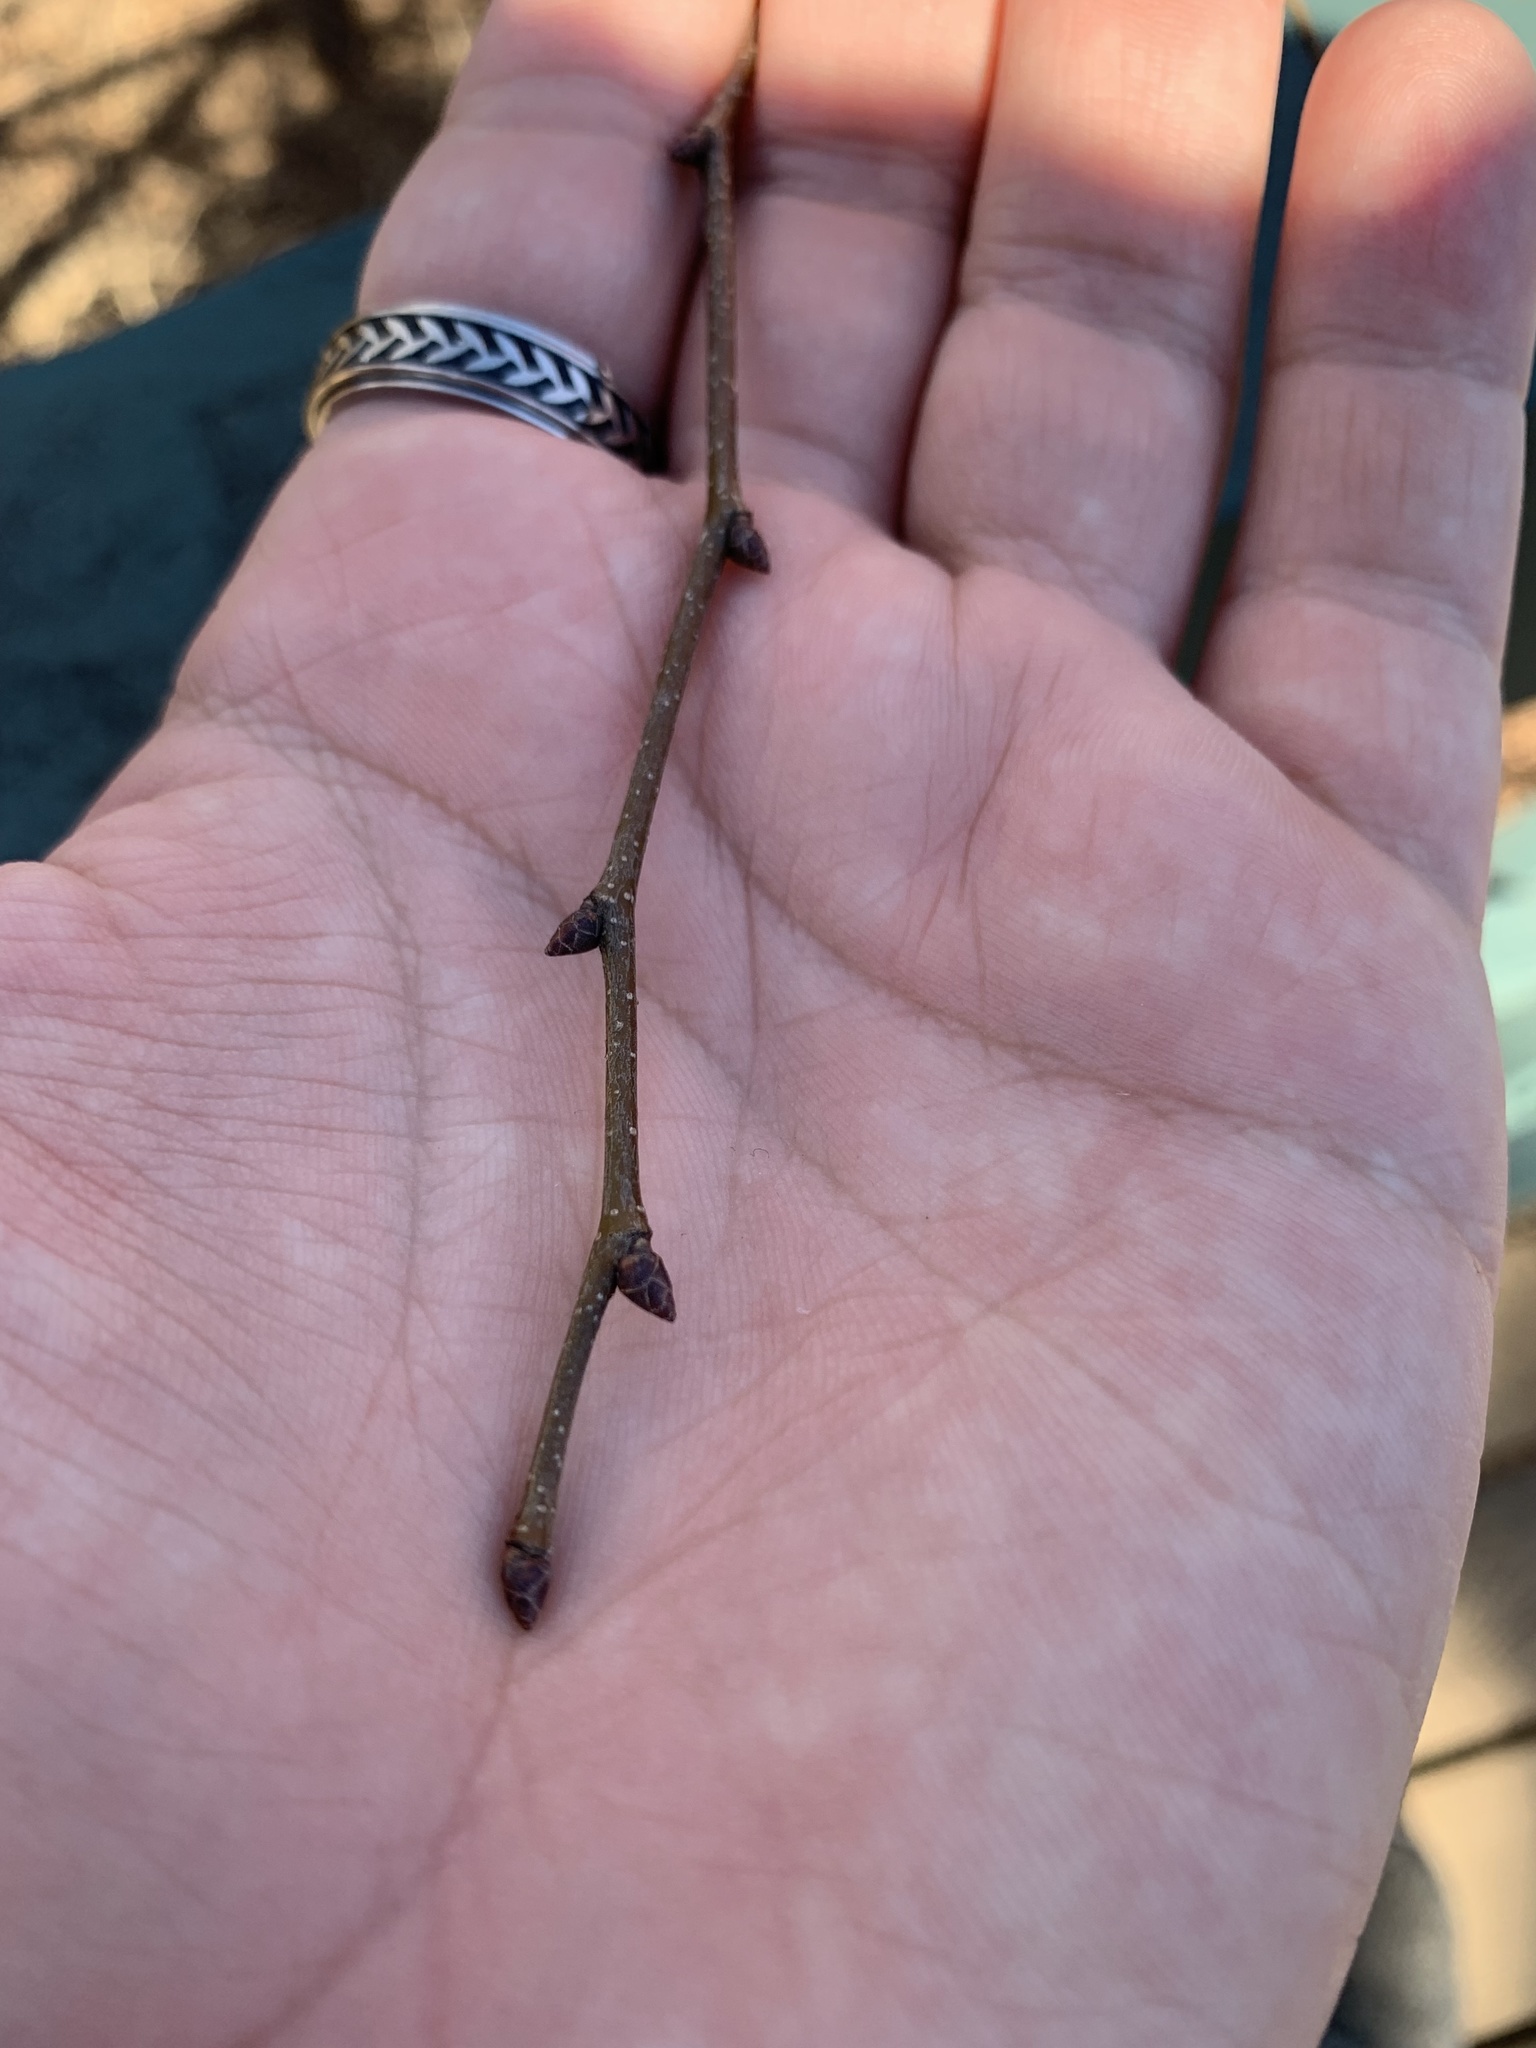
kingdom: Plantae
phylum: Tracheophyta
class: Magnoliopsida
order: Rosales
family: Ulmaceae
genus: Zelkova
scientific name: Zelkova serrata
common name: Japanese zelkova
